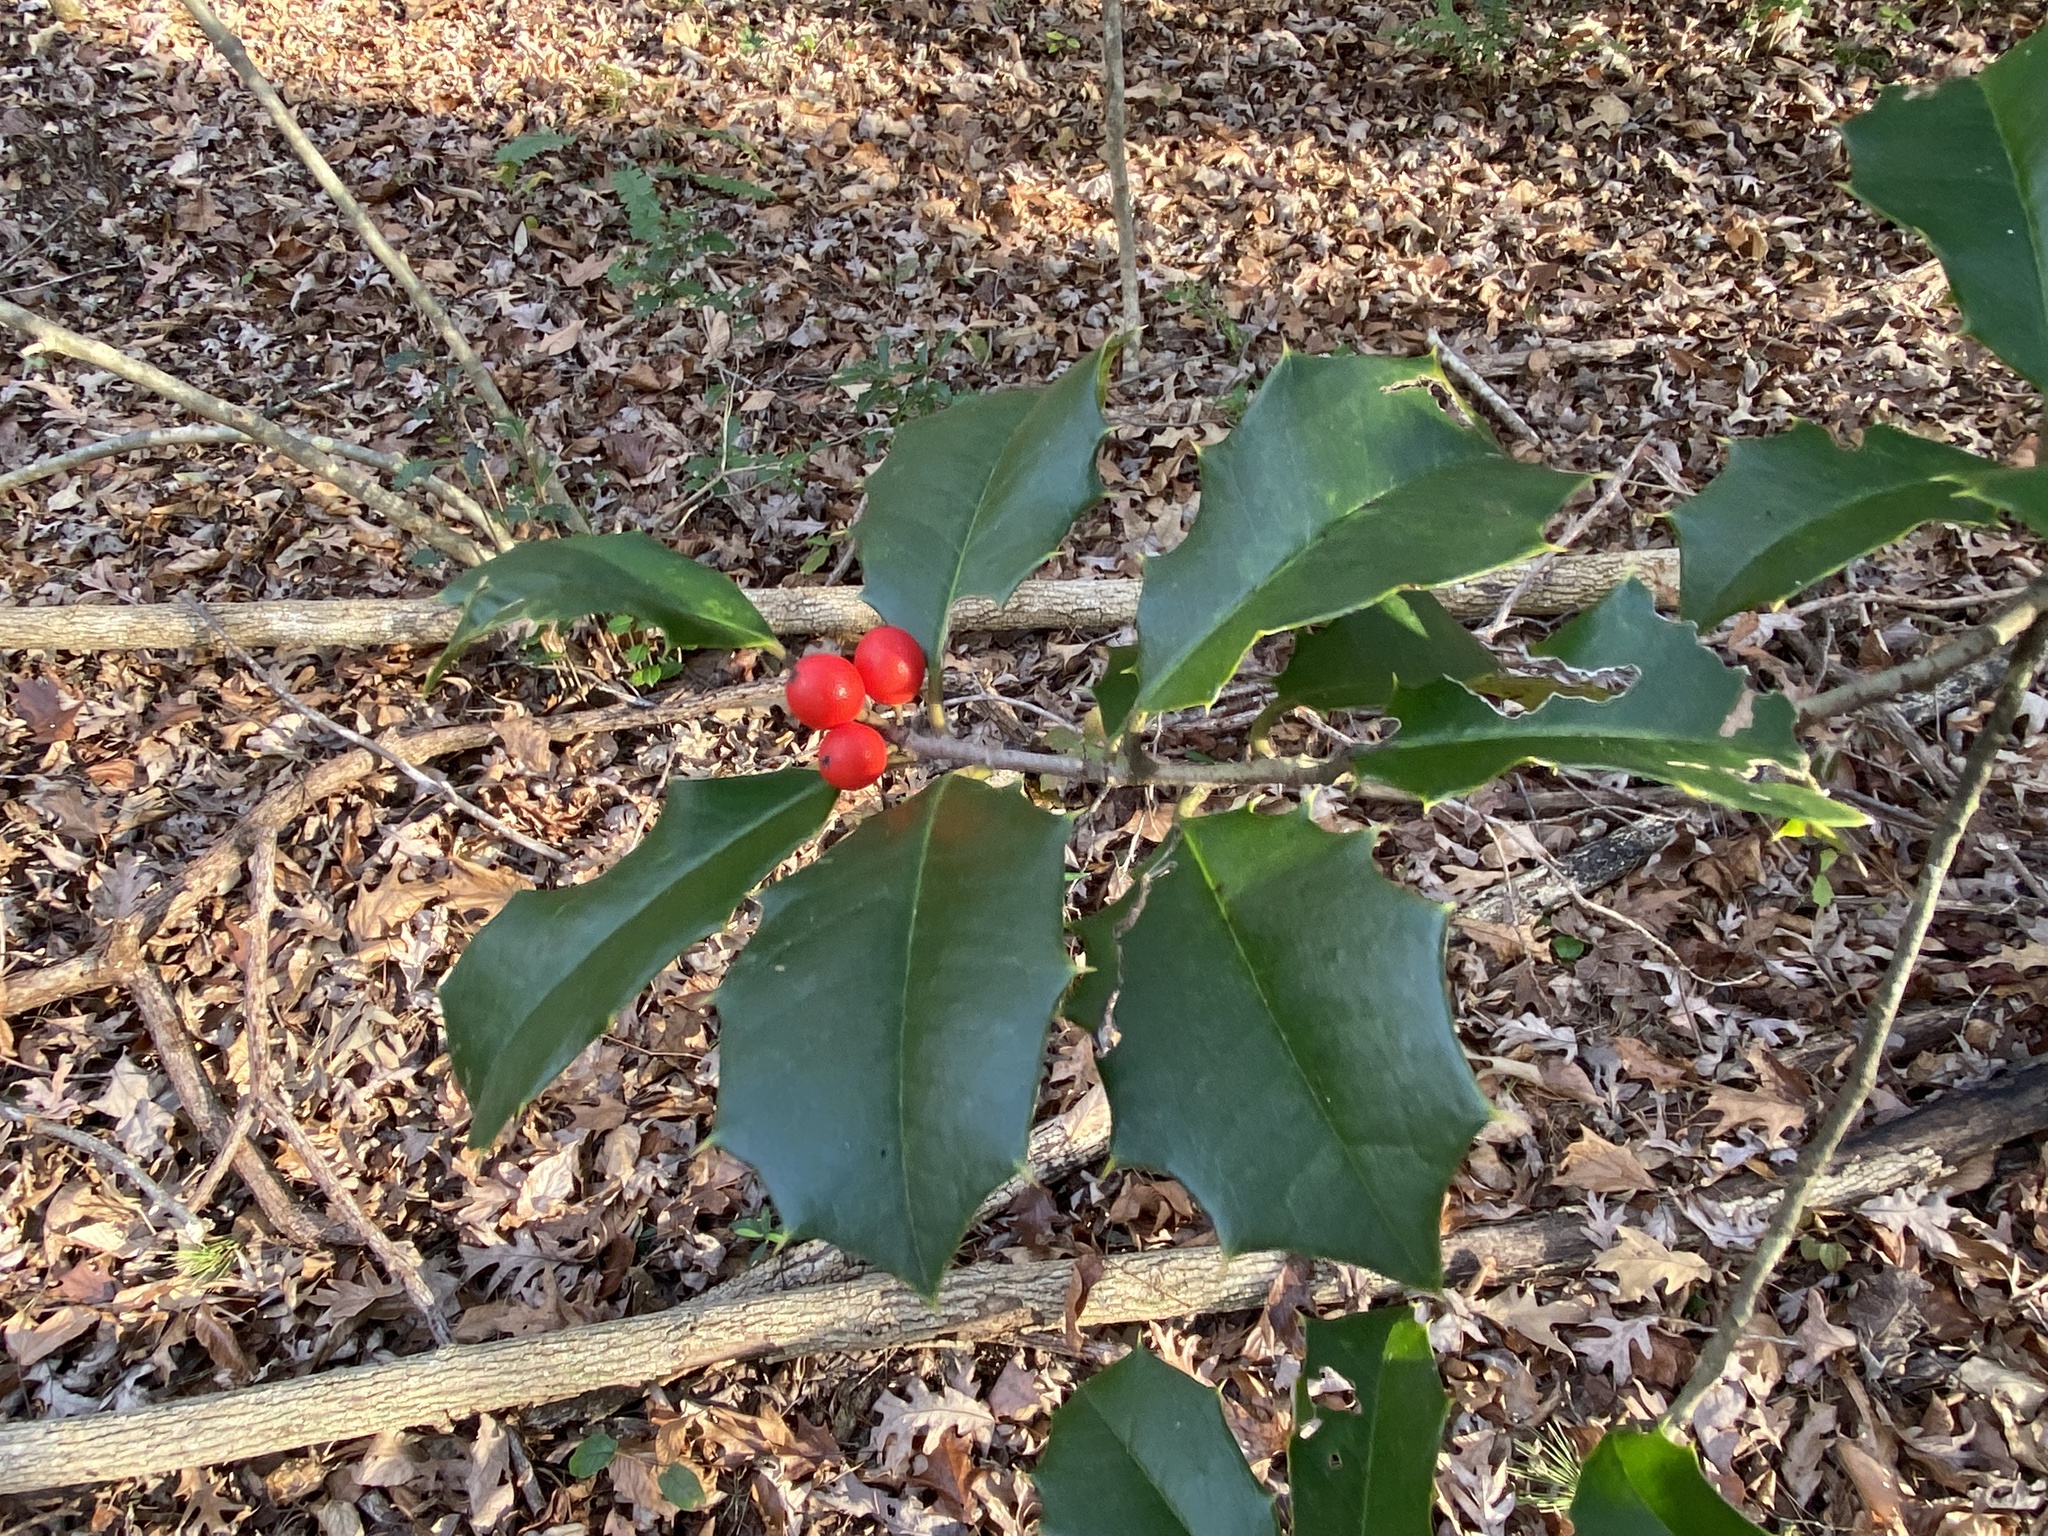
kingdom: Plantae
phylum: Tracheophyta
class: Magnoliopsida
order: Aquifoliales
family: Aquifoliaceae
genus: Ilex
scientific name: Ilex opaca
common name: American holly
